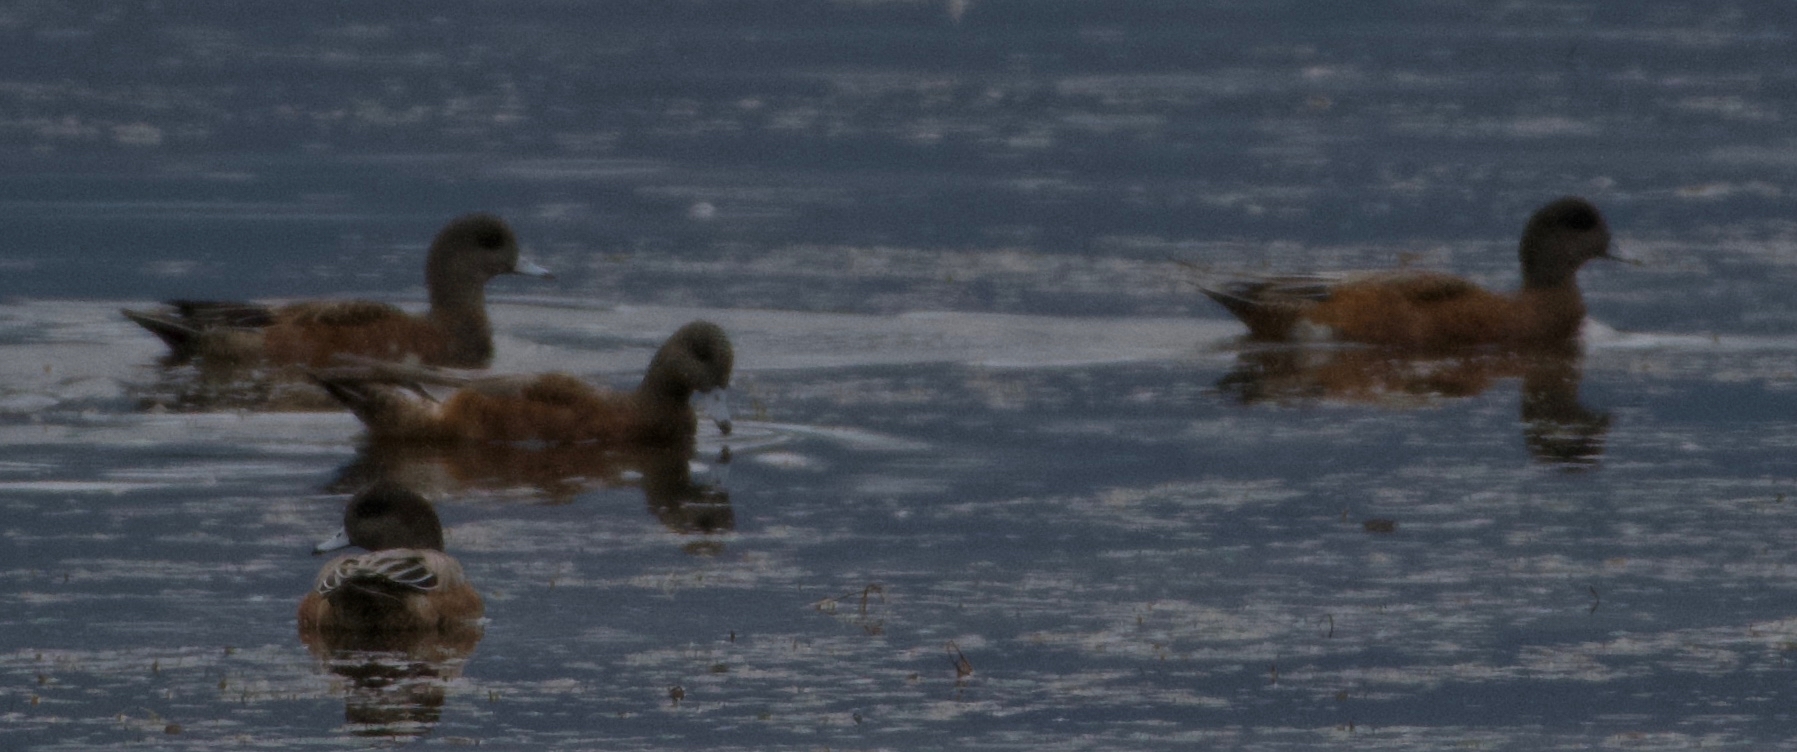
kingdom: Animalia
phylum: Chordata
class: Aves
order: Anseriformes
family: Anatidae
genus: Mareca
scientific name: Mareca americana
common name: American wigeon
